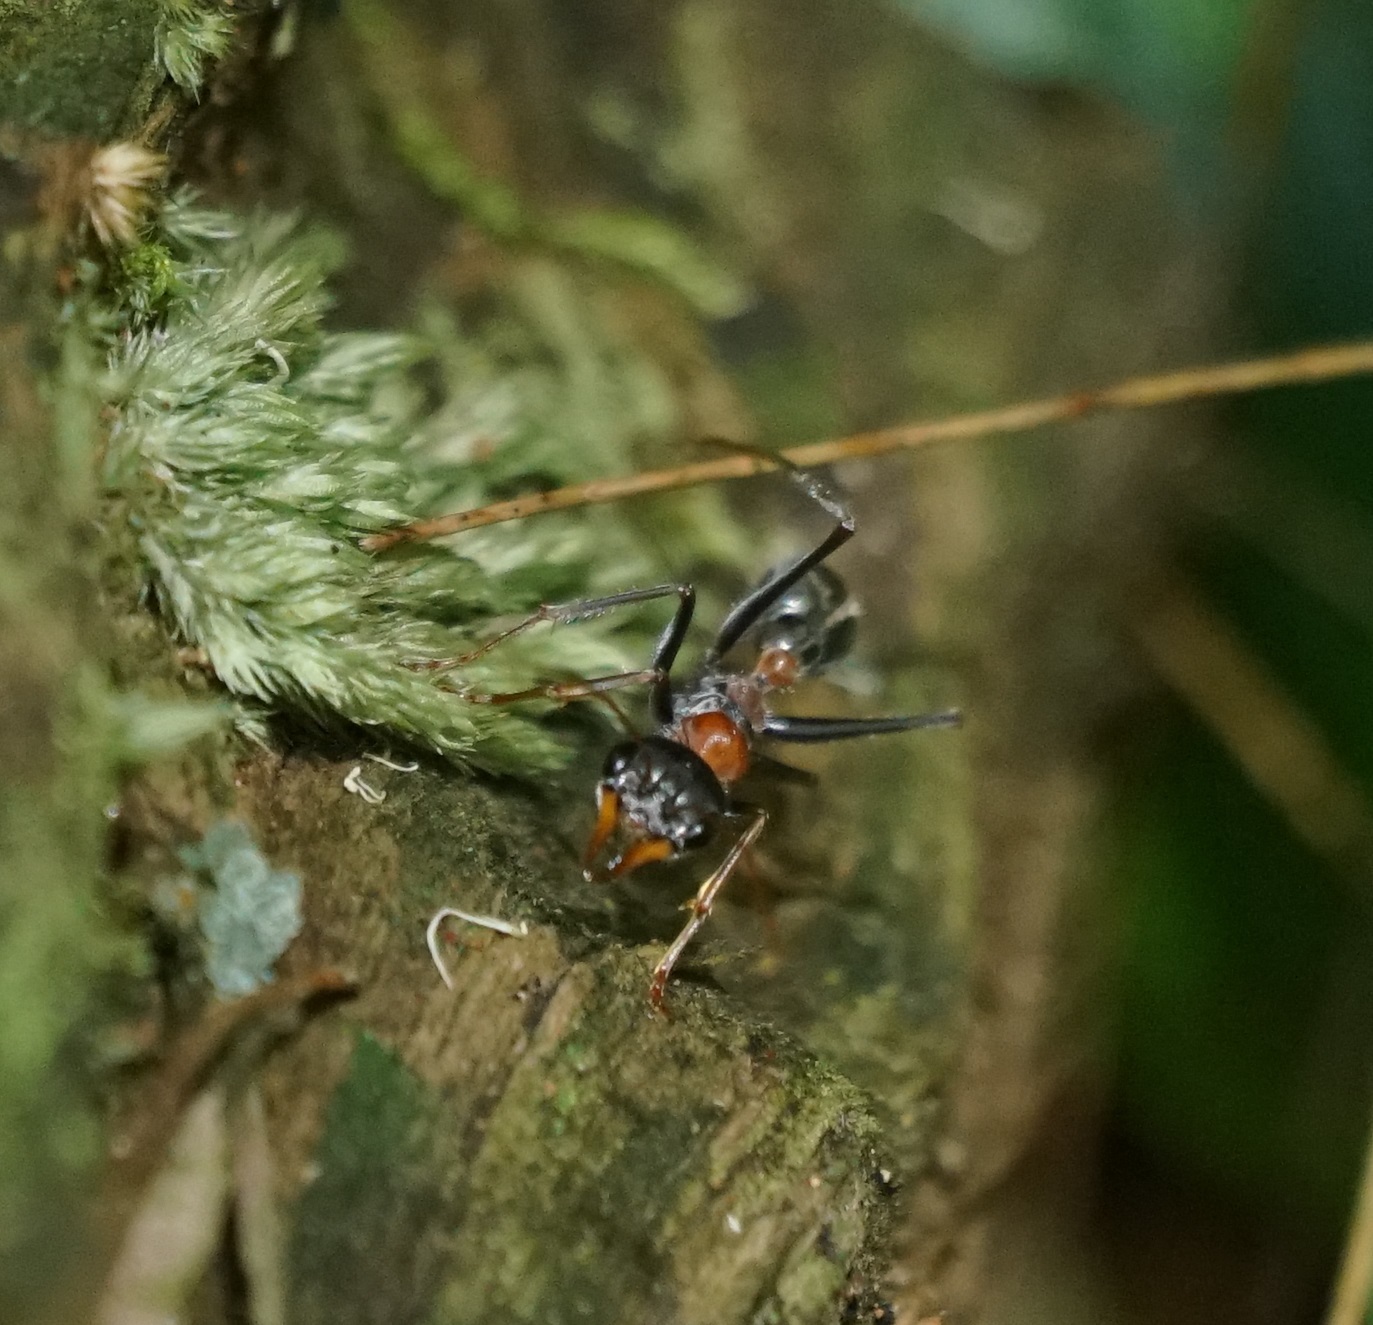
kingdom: Animalia
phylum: Arthropoda
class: Insecta
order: Hymenoptera
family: Formicidae
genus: Myrmecia
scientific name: Myrmecia nigrocincta
